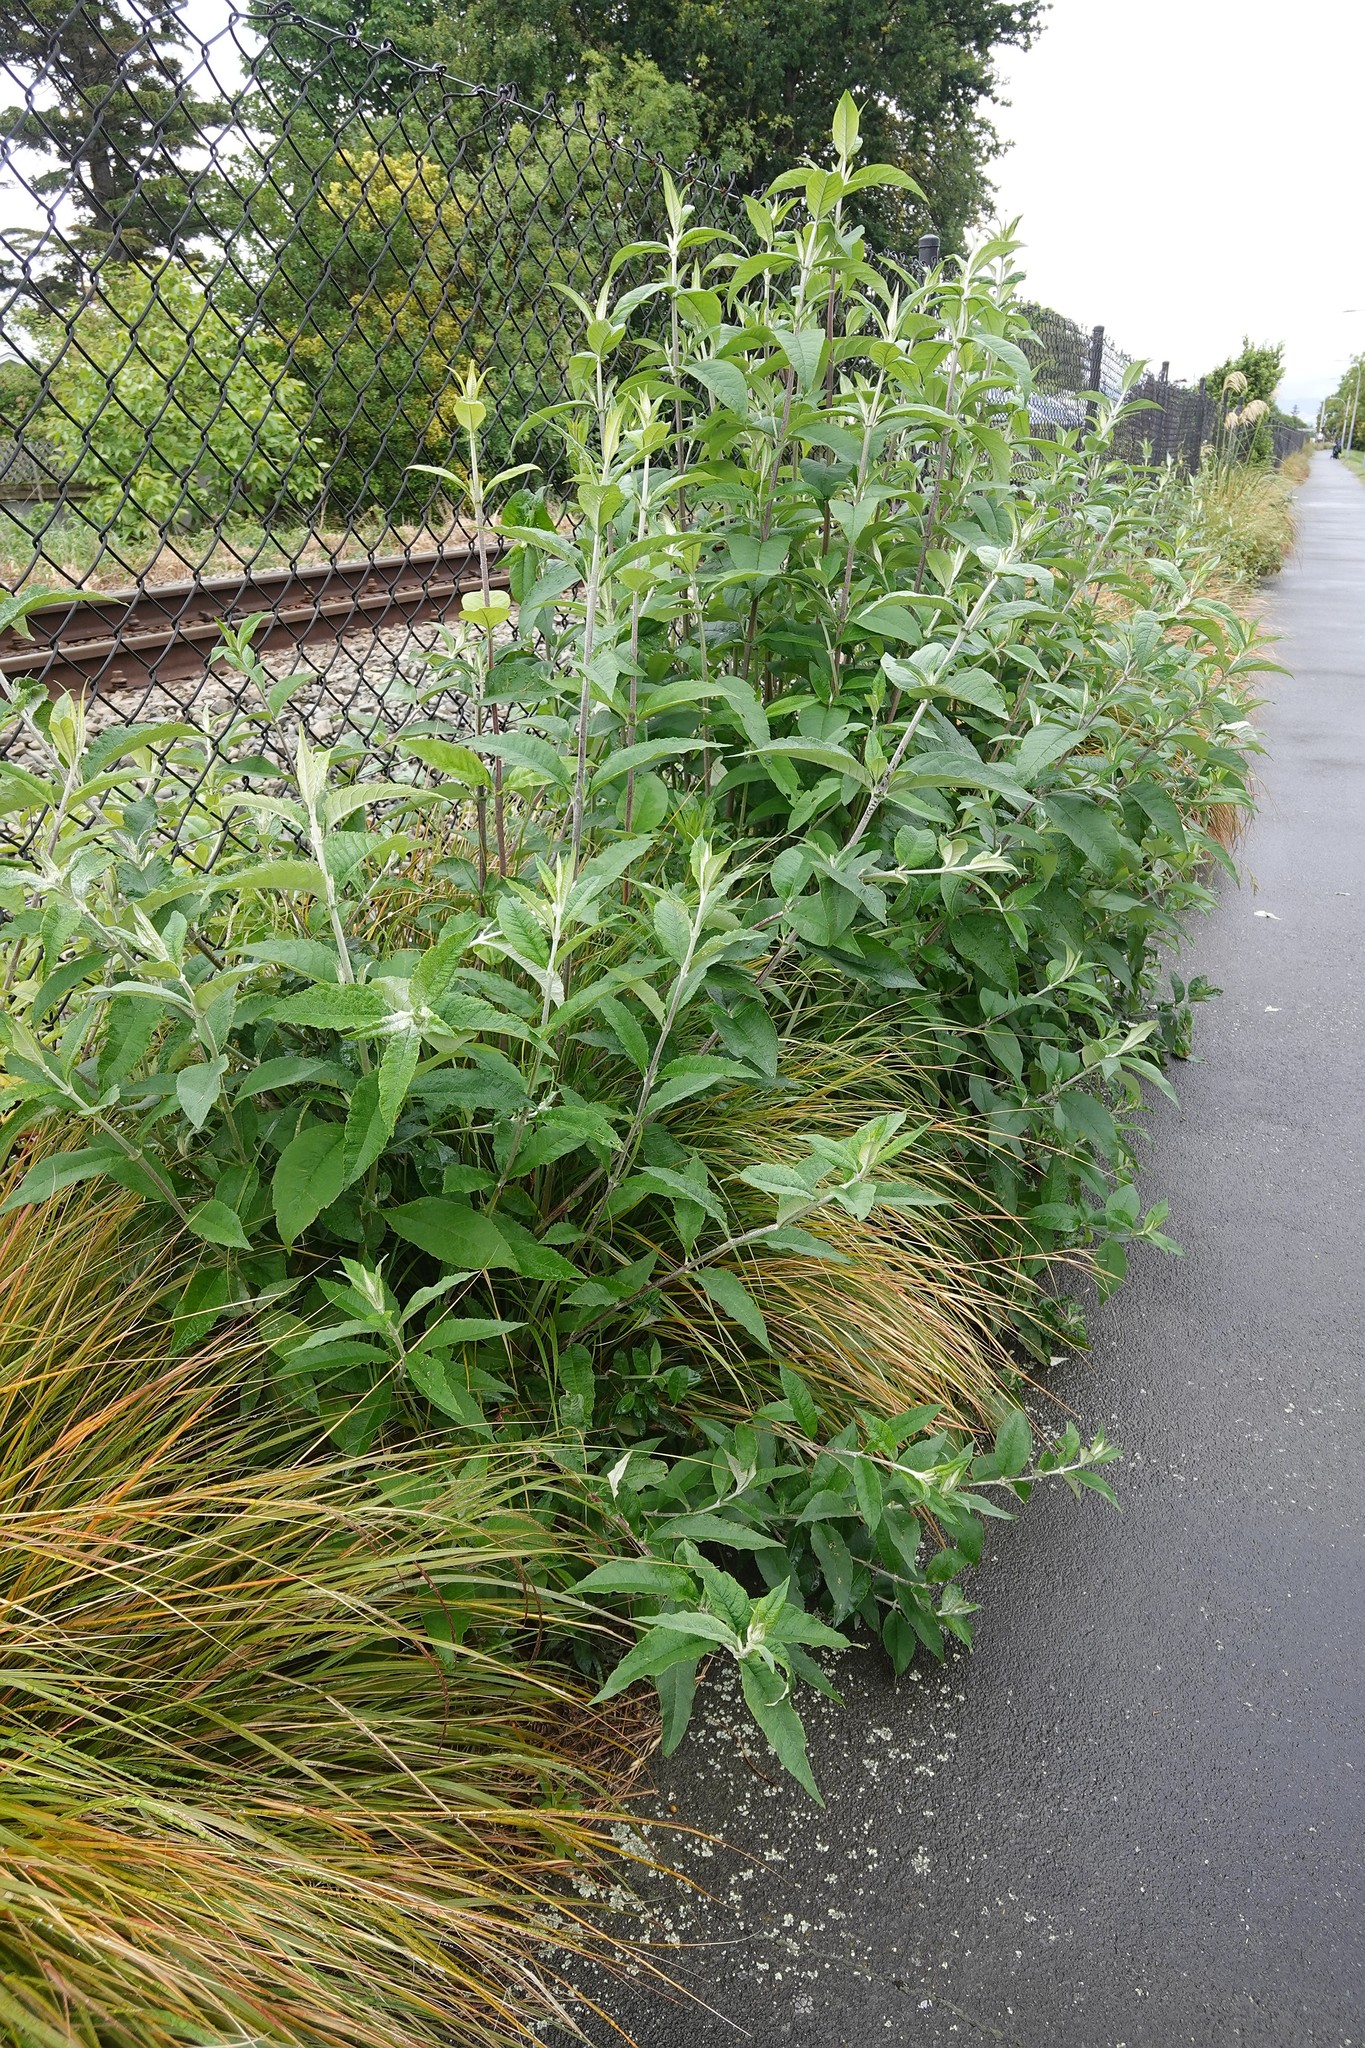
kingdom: Plantae
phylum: Tracheophyta
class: Magnoliopsida
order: Lamiales
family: Scrophulariaceae
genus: Buddleja
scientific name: Buddleja davidii
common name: Butterfly-bush
